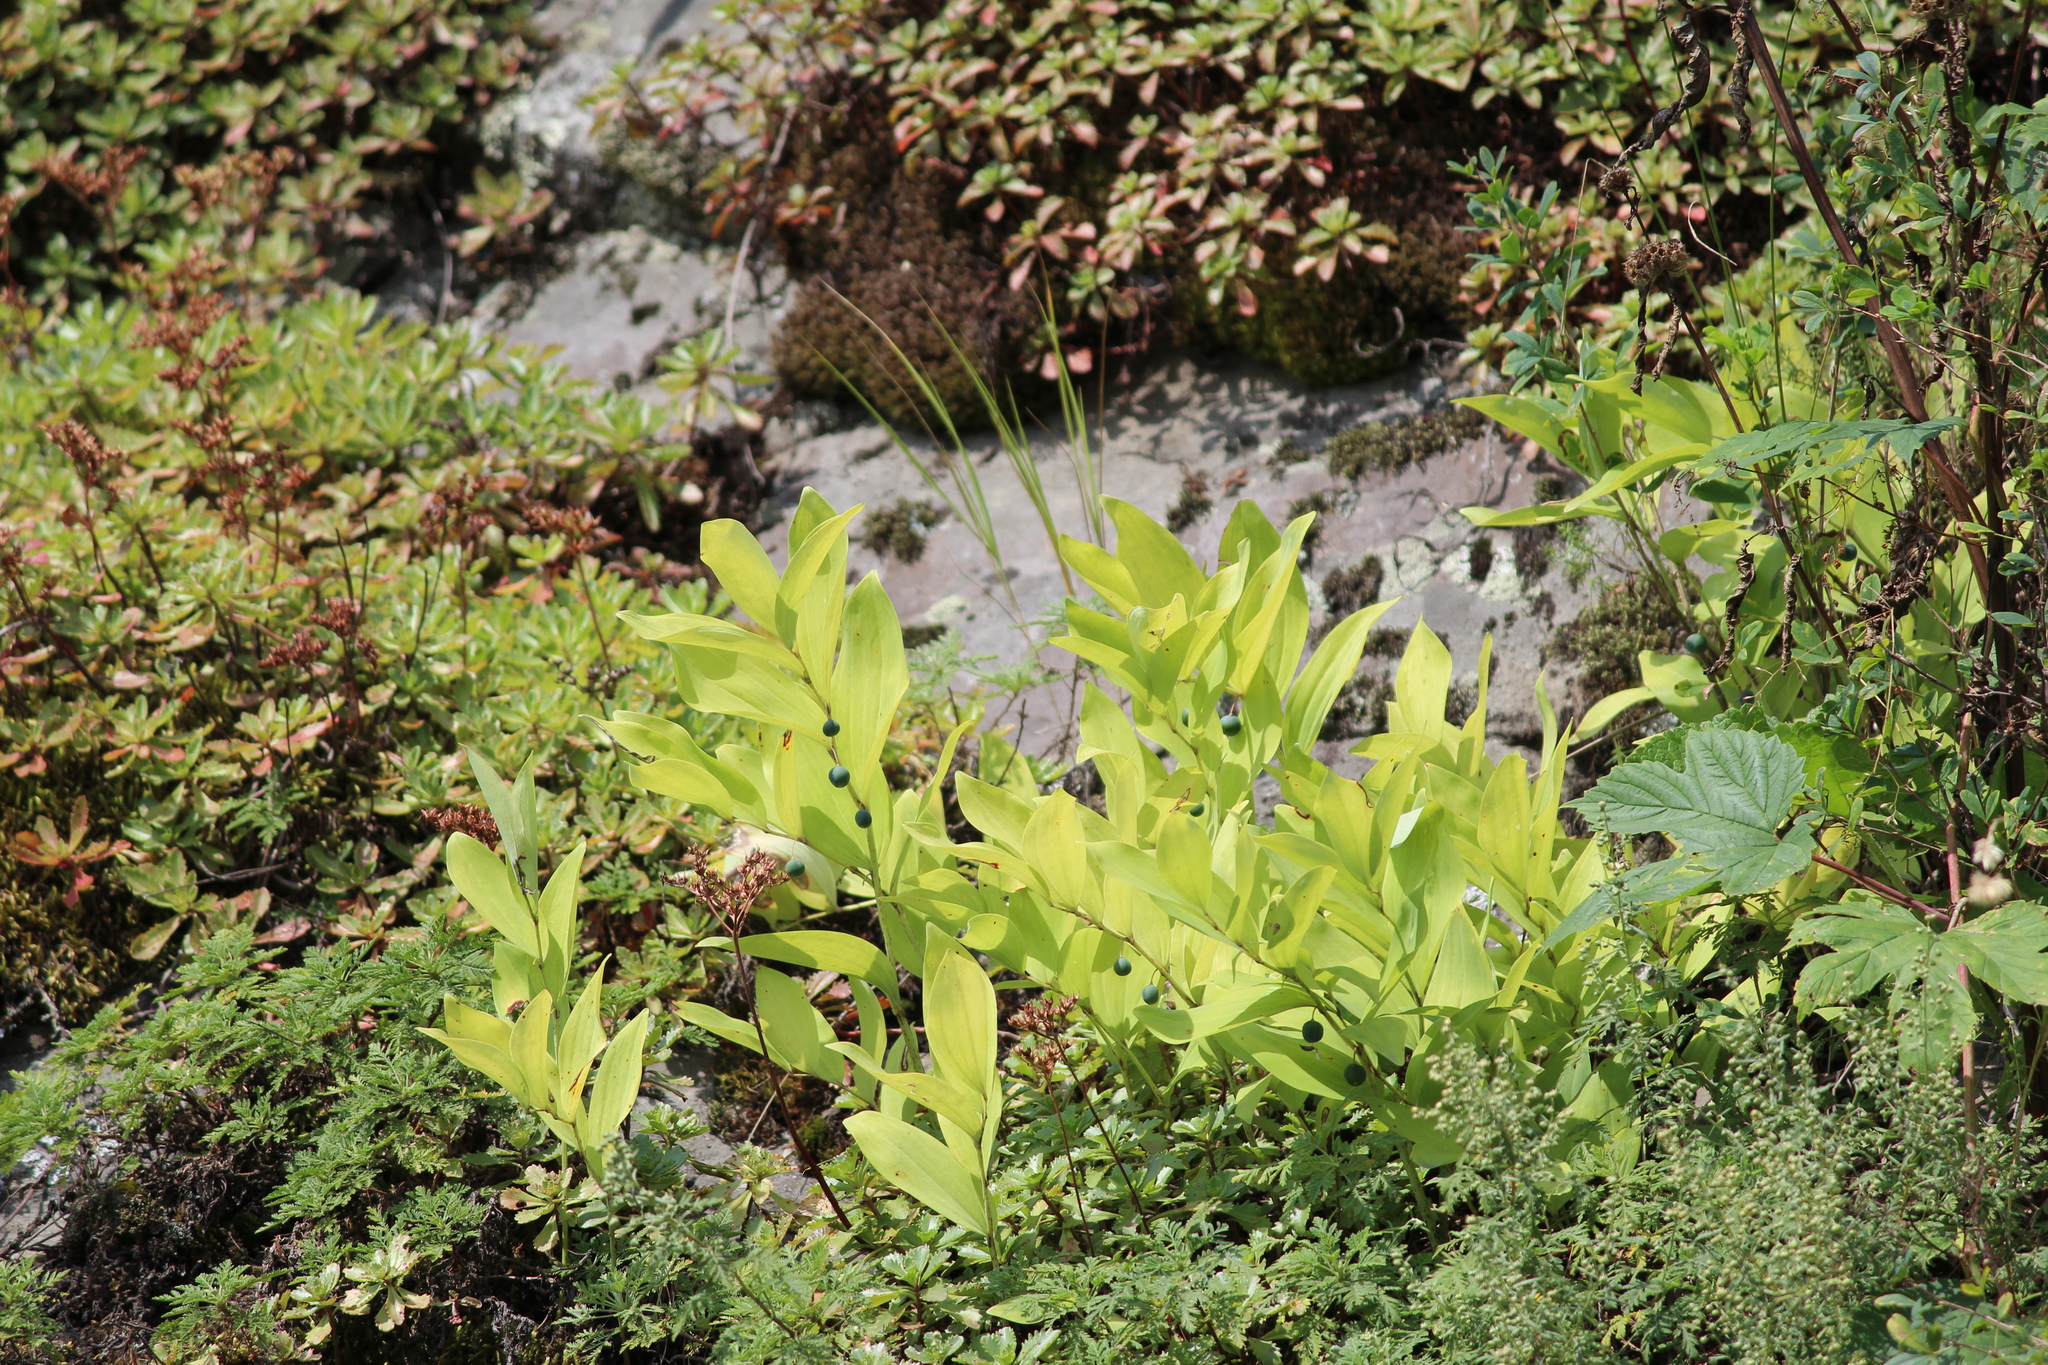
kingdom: Plantae
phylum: Tracheophyta
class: Liliopsida
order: Asparagales
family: Asparagaceae
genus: Polygonatum
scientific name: Polygonatum odoratum
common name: Angular solomon's-seal
